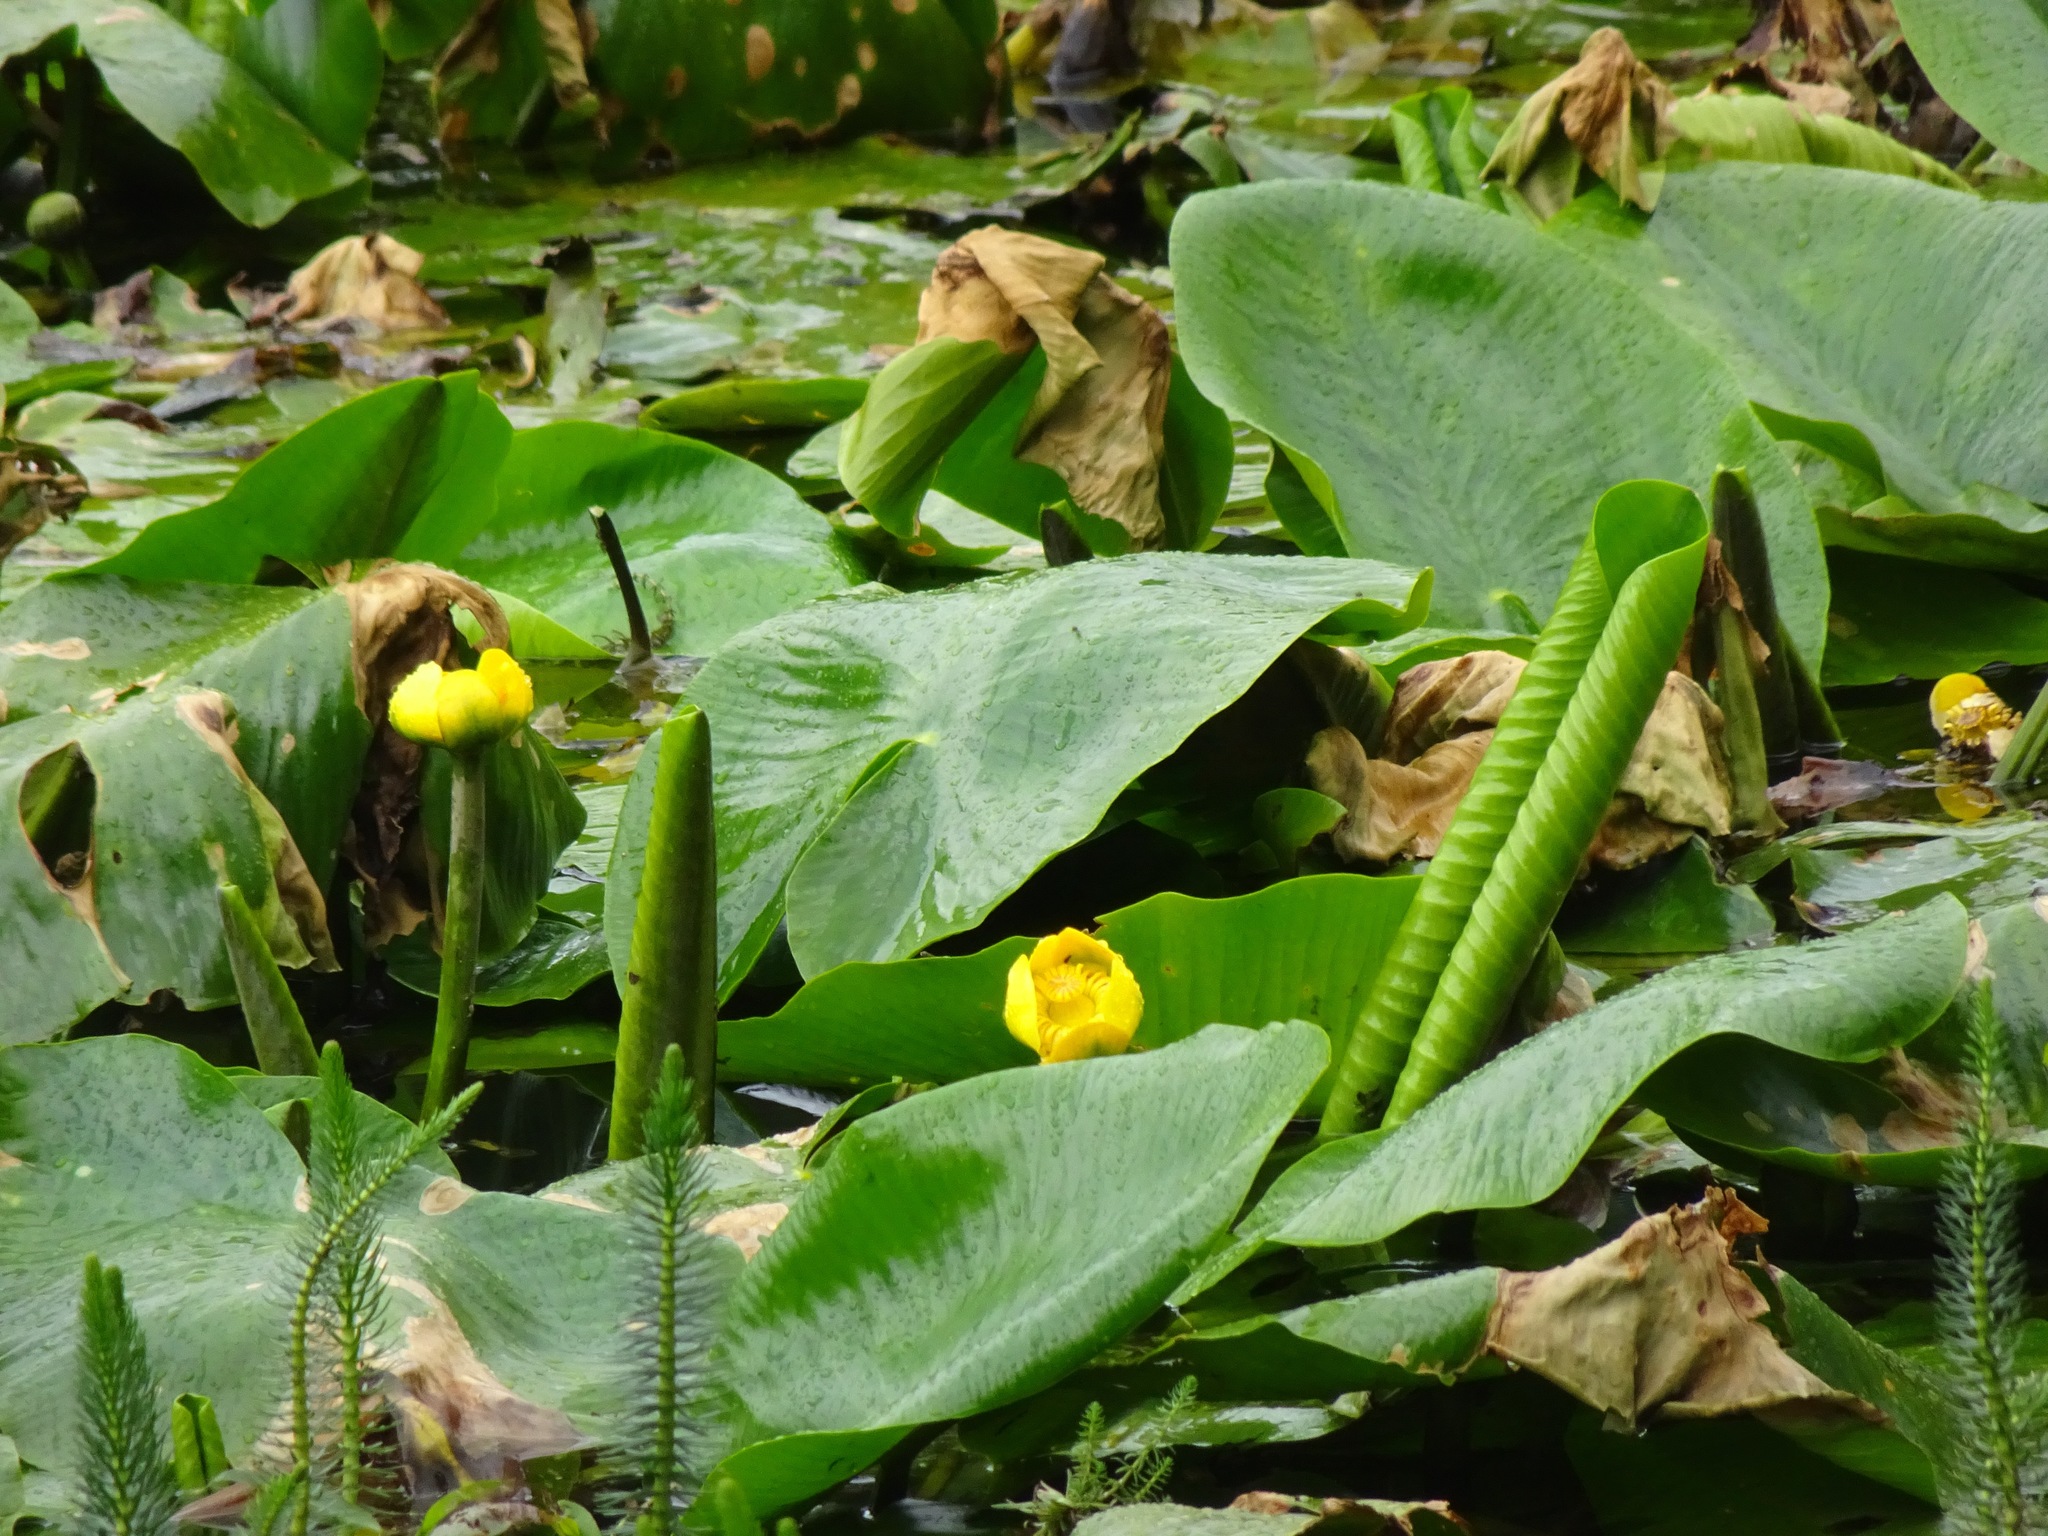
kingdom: Plantae
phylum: Tracheophyta
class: Magnoliopsida
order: Nymphaeales
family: Nymphaeaceae
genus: Nuphar
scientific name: Nuphar lutea
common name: Yellow water-lily
